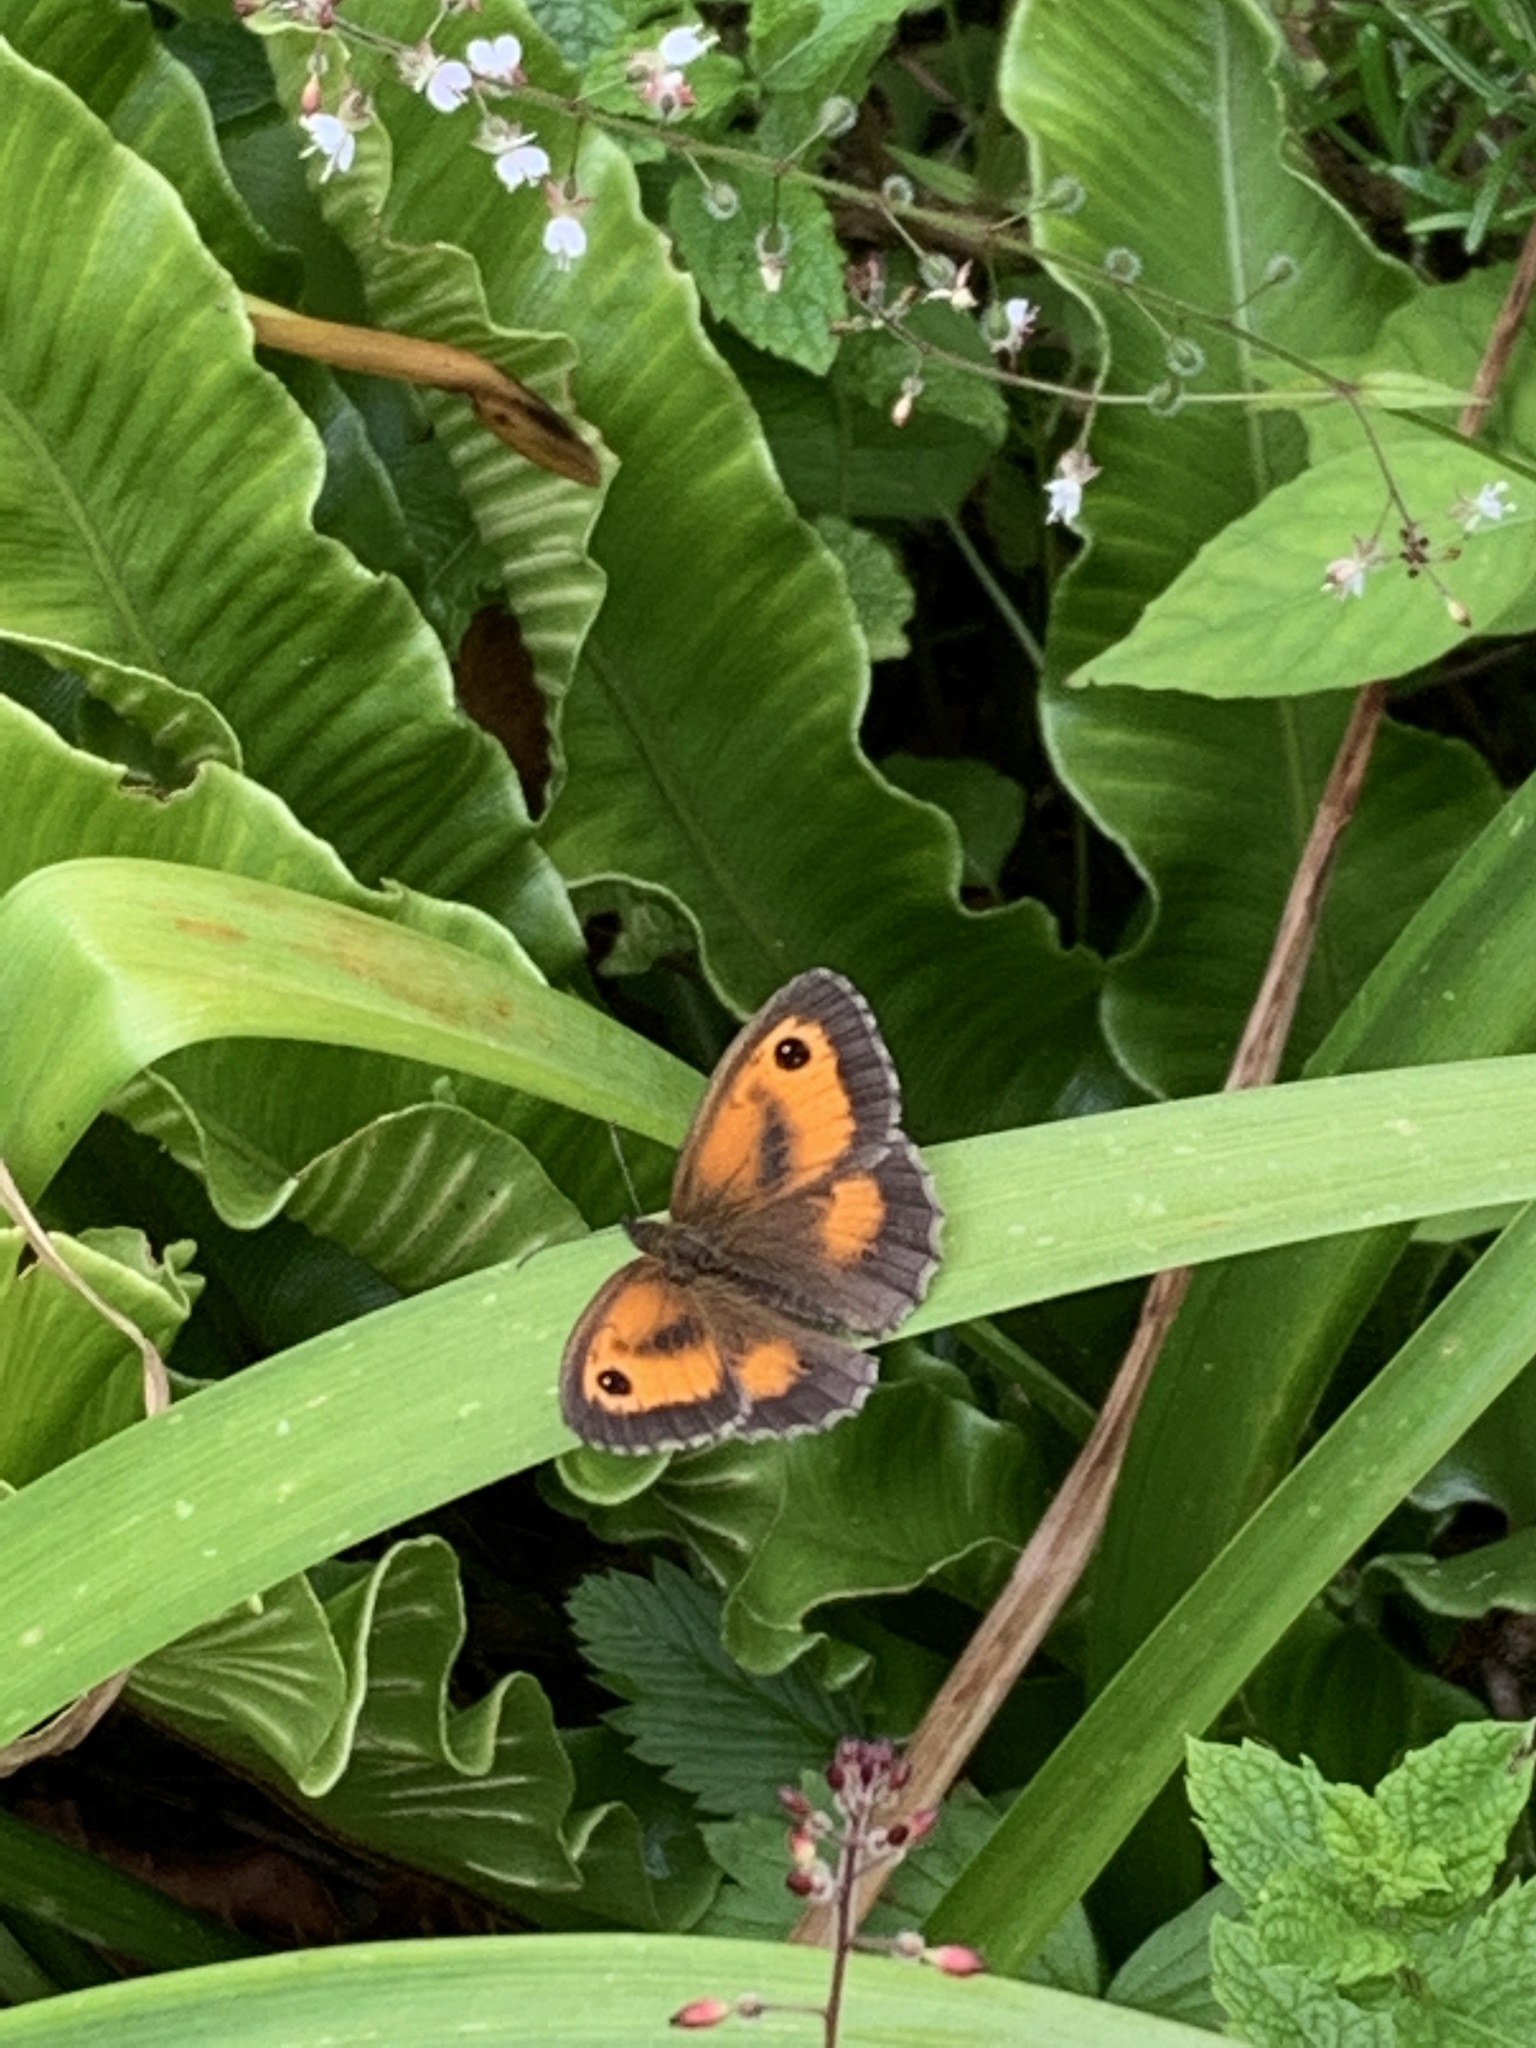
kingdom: Animalia
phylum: Arthropoda
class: Insecta
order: Lepidoptera
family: Nymphalidae
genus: Pyronia
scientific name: Pyronia tithonus
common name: Gatekeeper
